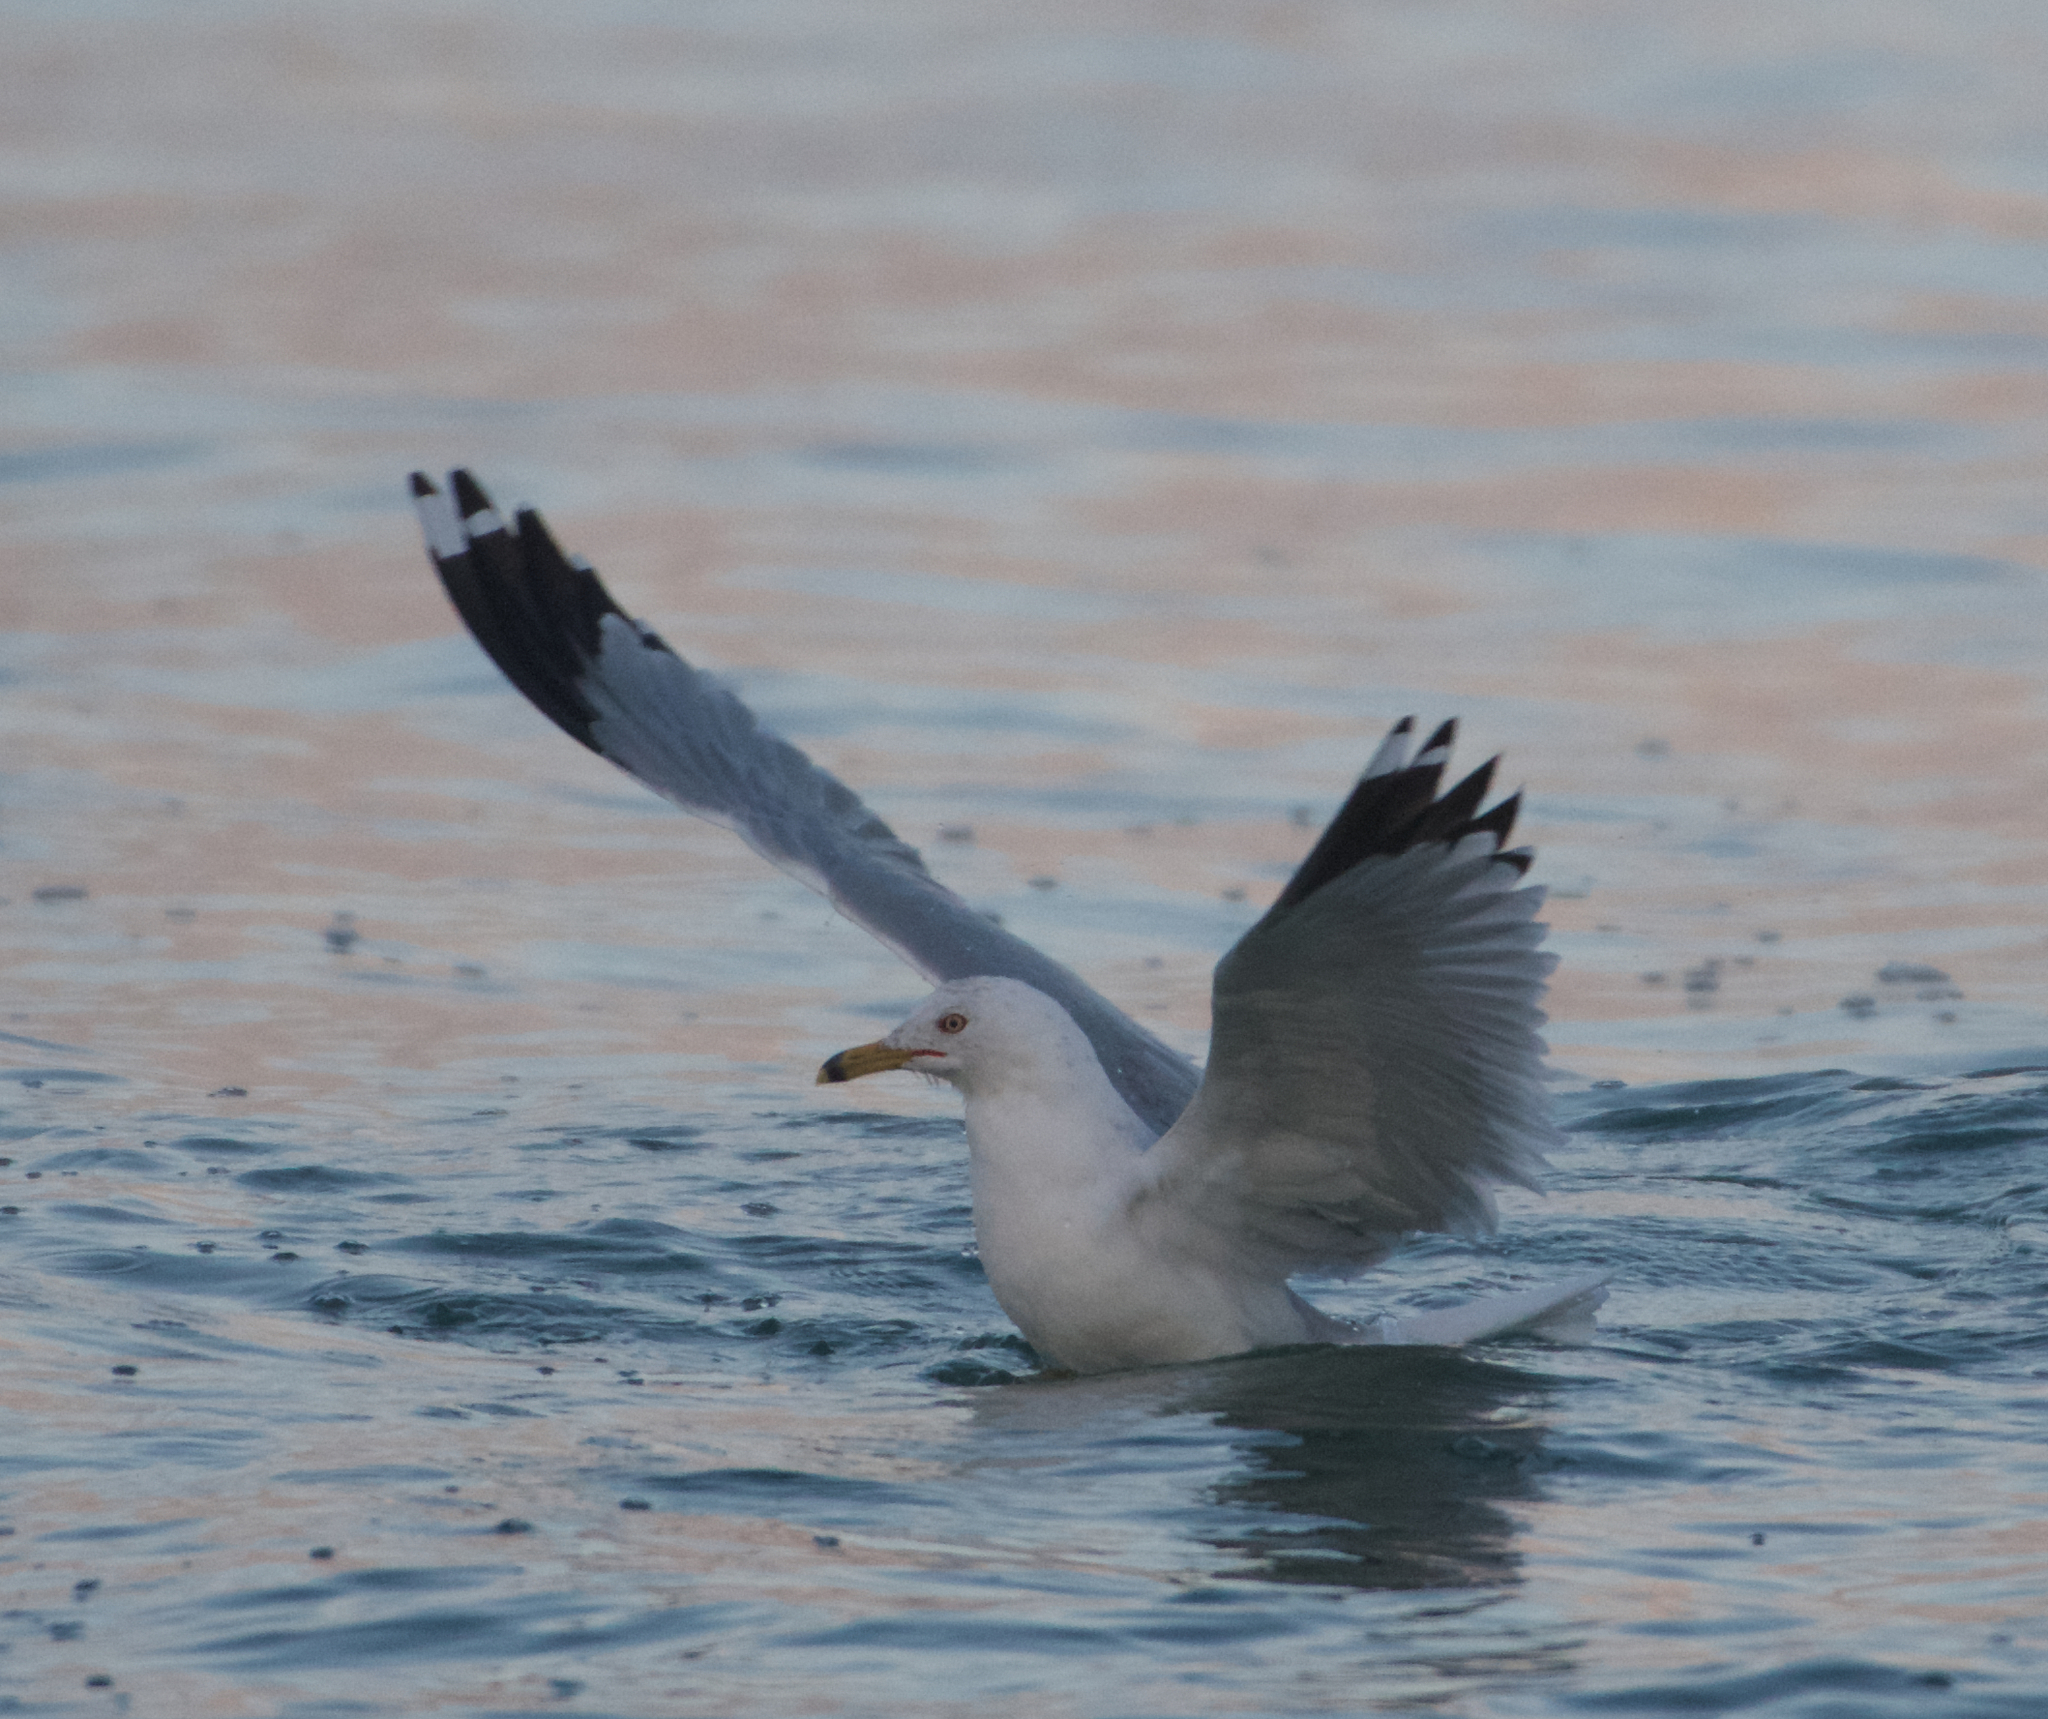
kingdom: Animalia
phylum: Chordata
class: Aves
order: Charadriiformes
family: Laridae
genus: Larus
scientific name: Larus delawarensis
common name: Ring-billed gull
